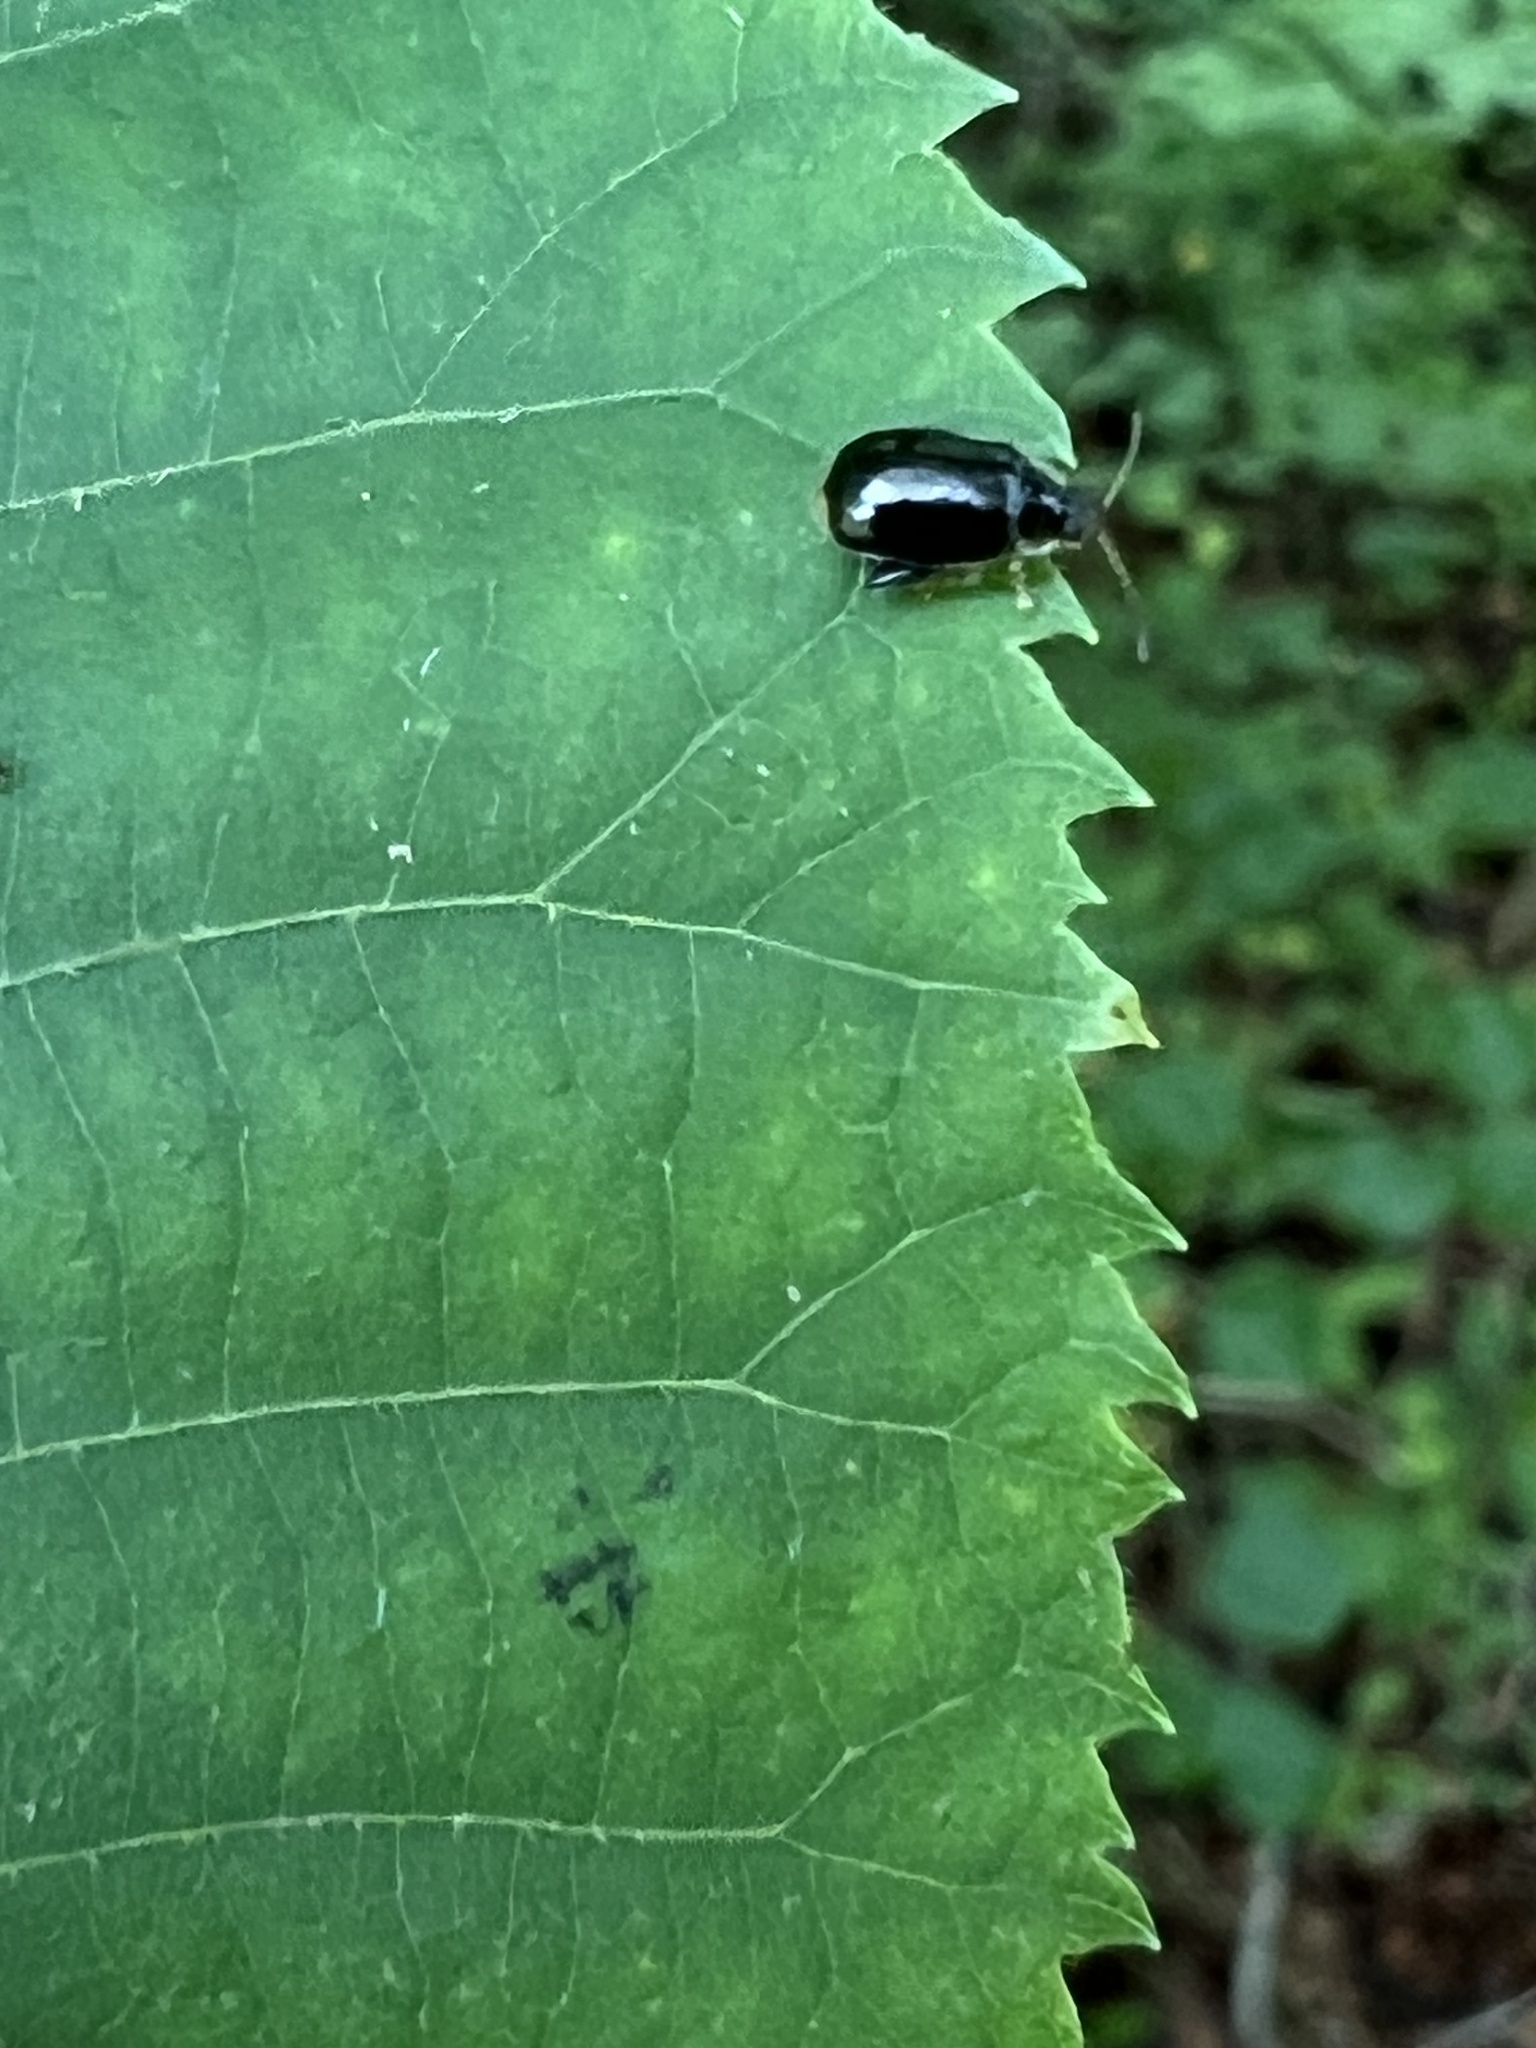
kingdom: Animalia
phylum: Arthropoda
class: Insecta
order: Coleoptera
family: Chrysomelidae
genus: Capraita
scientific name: Capraita obsidiana
